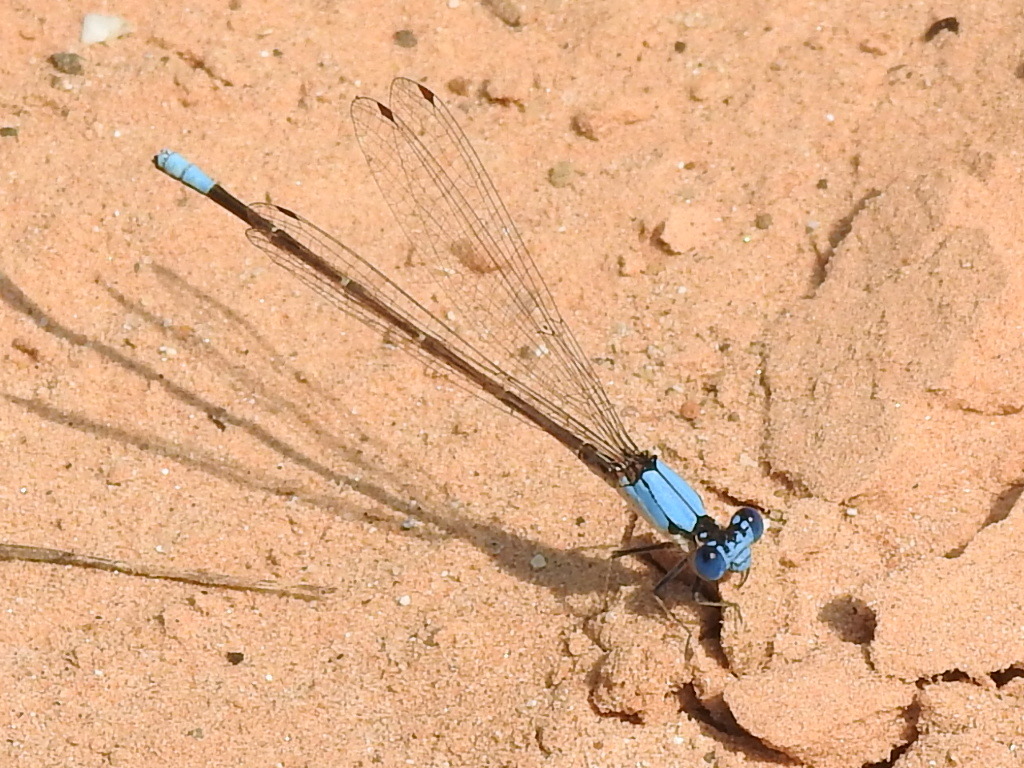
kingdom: Animalia
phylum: Arthropoda
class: Insecta
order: Odonata
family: Coenagrionidae
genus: Argia
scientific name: Argia apicalis
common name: Blue-fronted dancer
